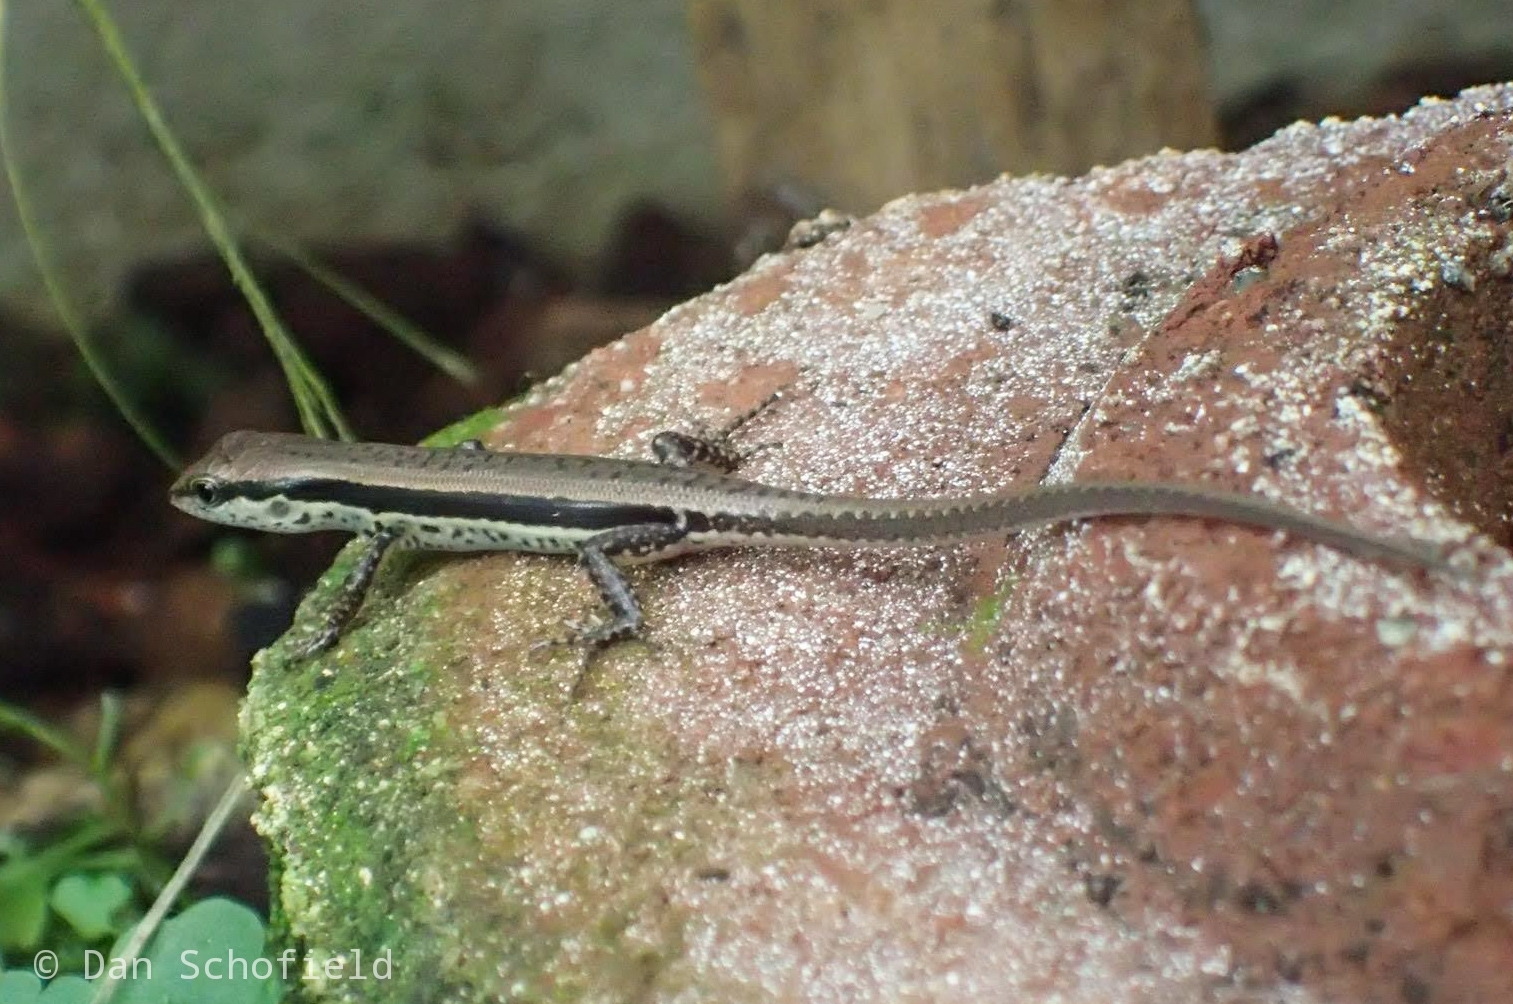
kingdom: Animalia
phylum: Chordata
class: Squamata
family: Scincidae
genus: Sphenomorphus
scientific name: Sphenomorphus maculatus
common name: Maculated forest skink
